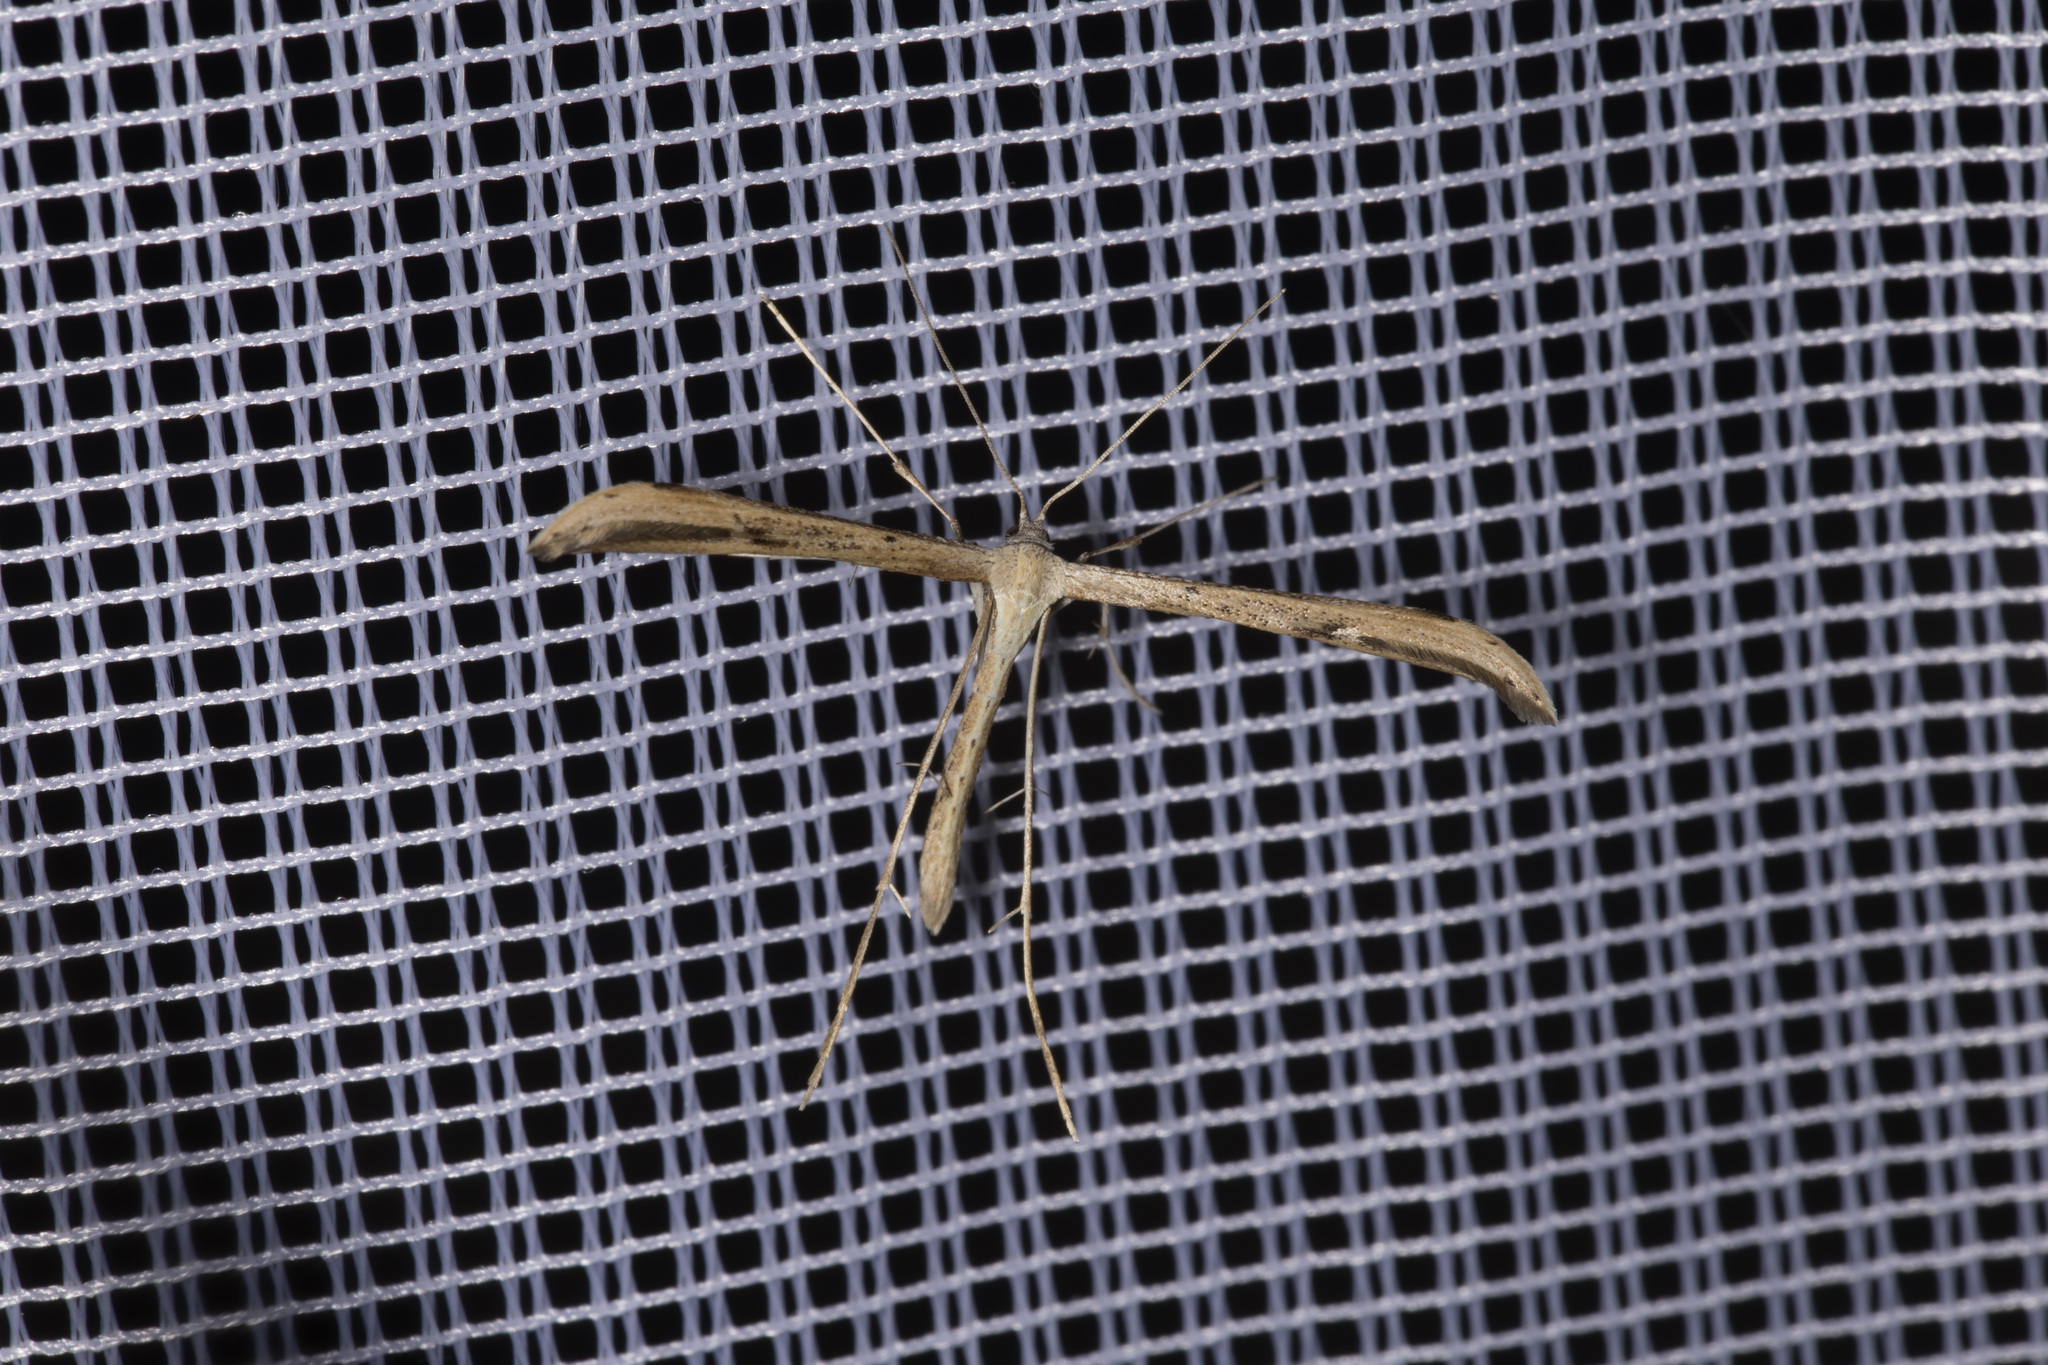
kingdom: Animalia
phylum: Arthropoda
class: Insecta
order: Lepidoptera
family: Pterophoridae
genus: Emmelina
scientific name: Emmelina monodactyla
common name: Common plume
